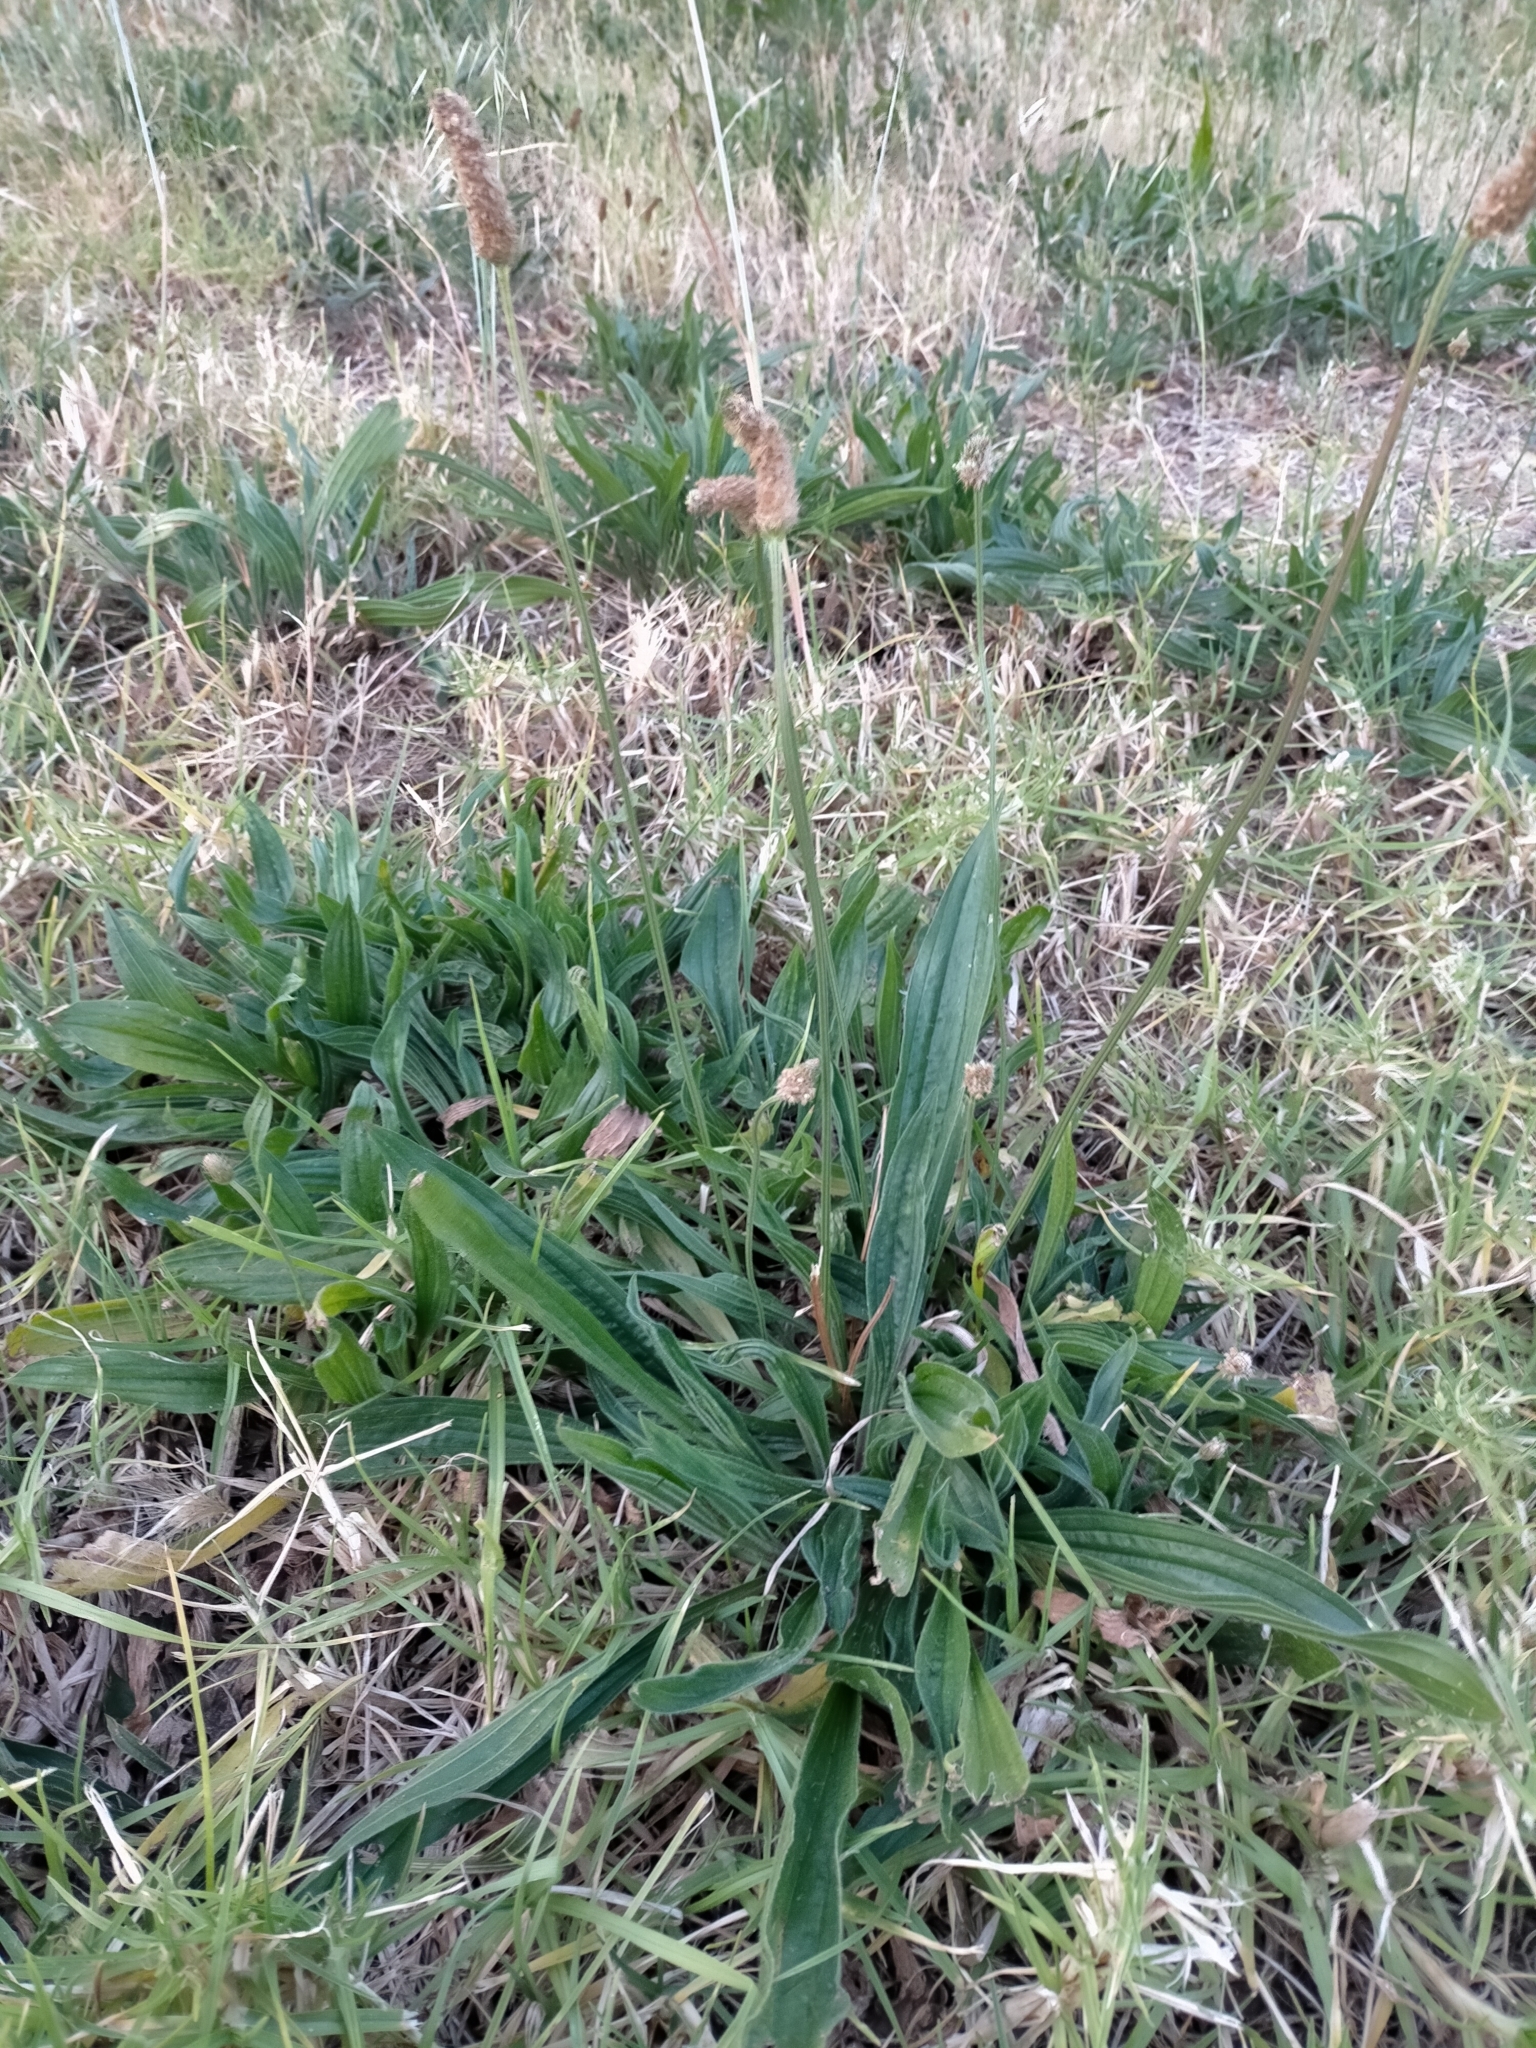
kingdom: Plantae
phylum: Tracheophyta
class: Magnoliopsida
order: Lamiales
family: Plantaginaceae
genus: Plantago
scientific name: Plantago lanceolata
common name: Ribwort plantain
